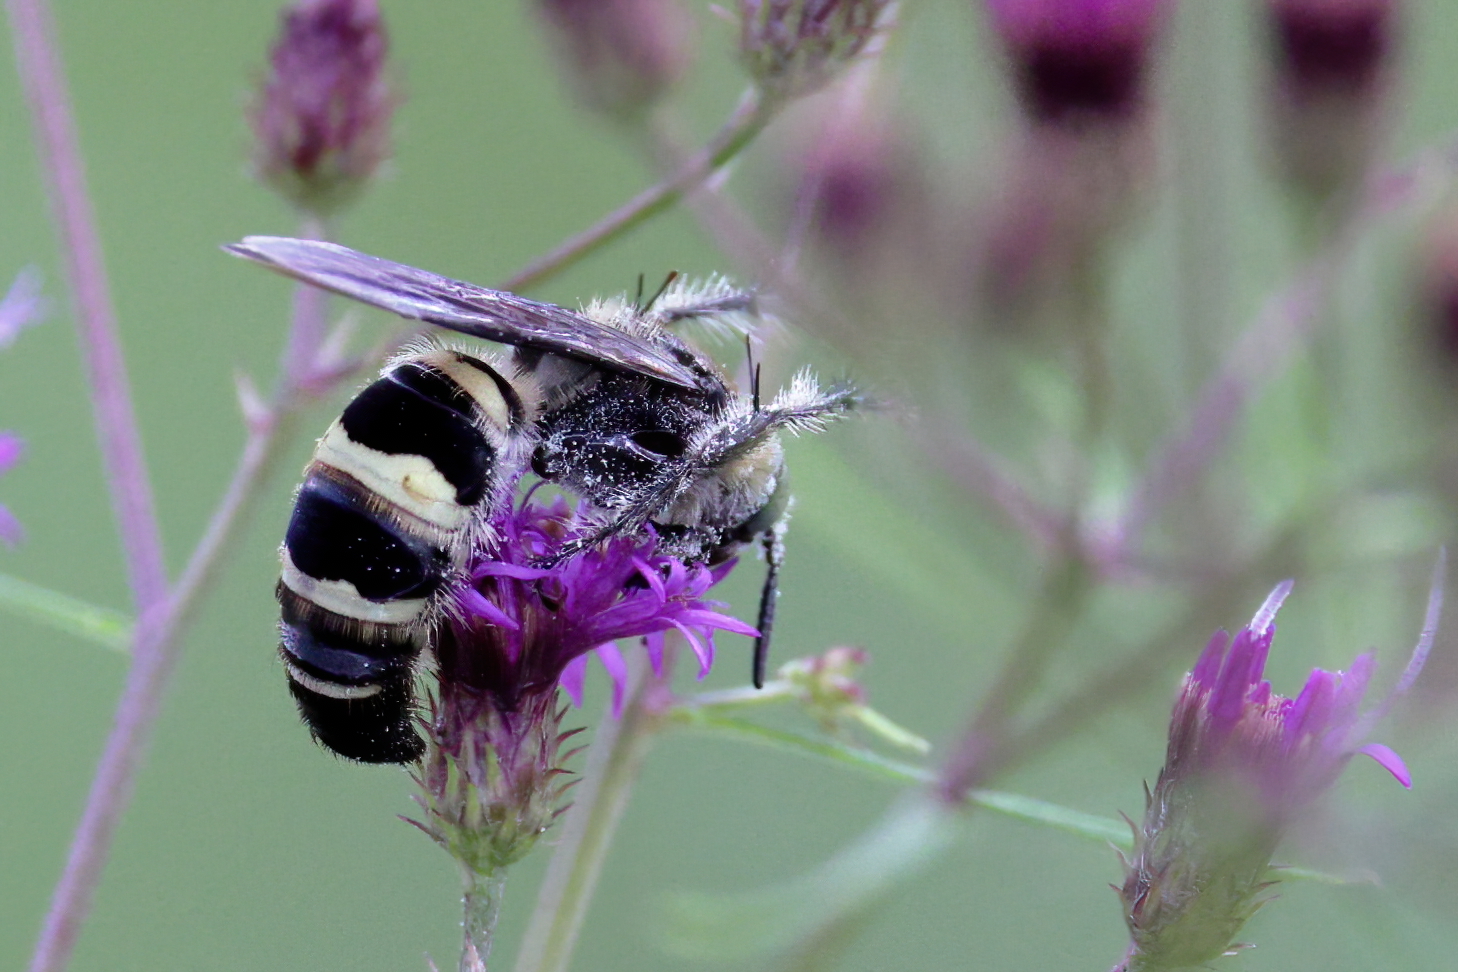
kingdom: Animalia
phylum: Arthropoda
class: Insecta
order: Hymenoptera
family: Scoliidae
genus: Dielis
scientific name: Dielis
